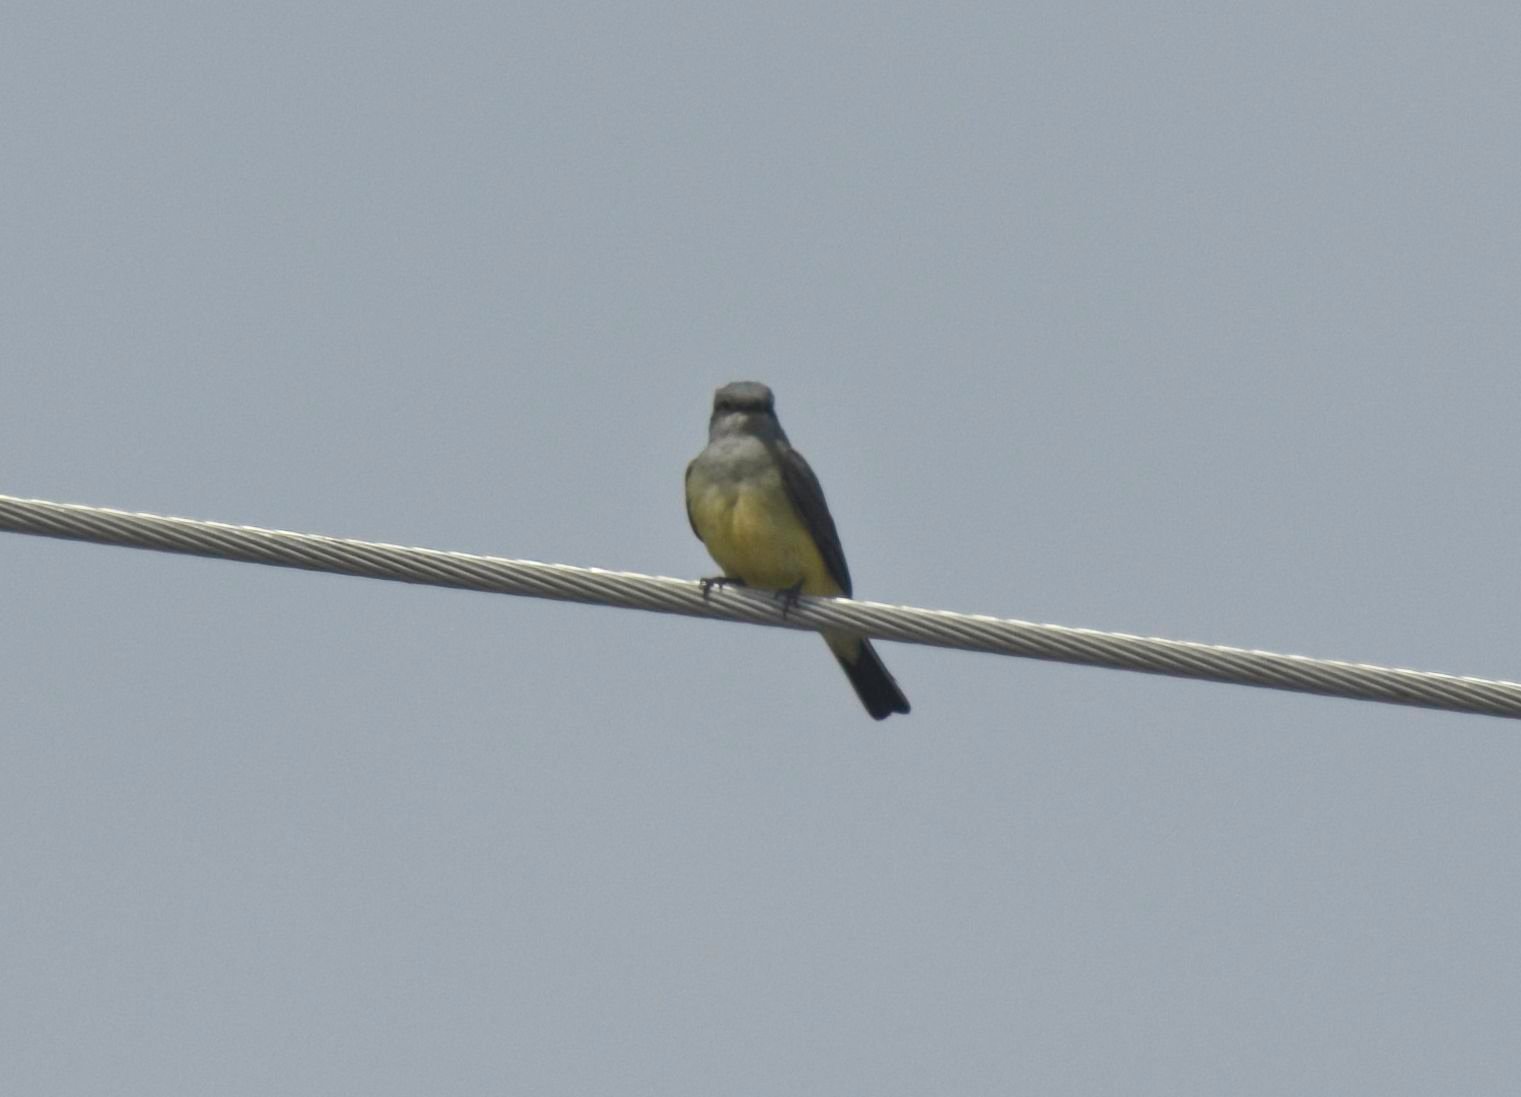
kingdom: Animalia
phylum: Chordata
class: Aves
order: Passeriformes
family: Tyrannidae
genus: Tyrannus
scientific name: Tyrannus verticalis
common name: Western kingbird
